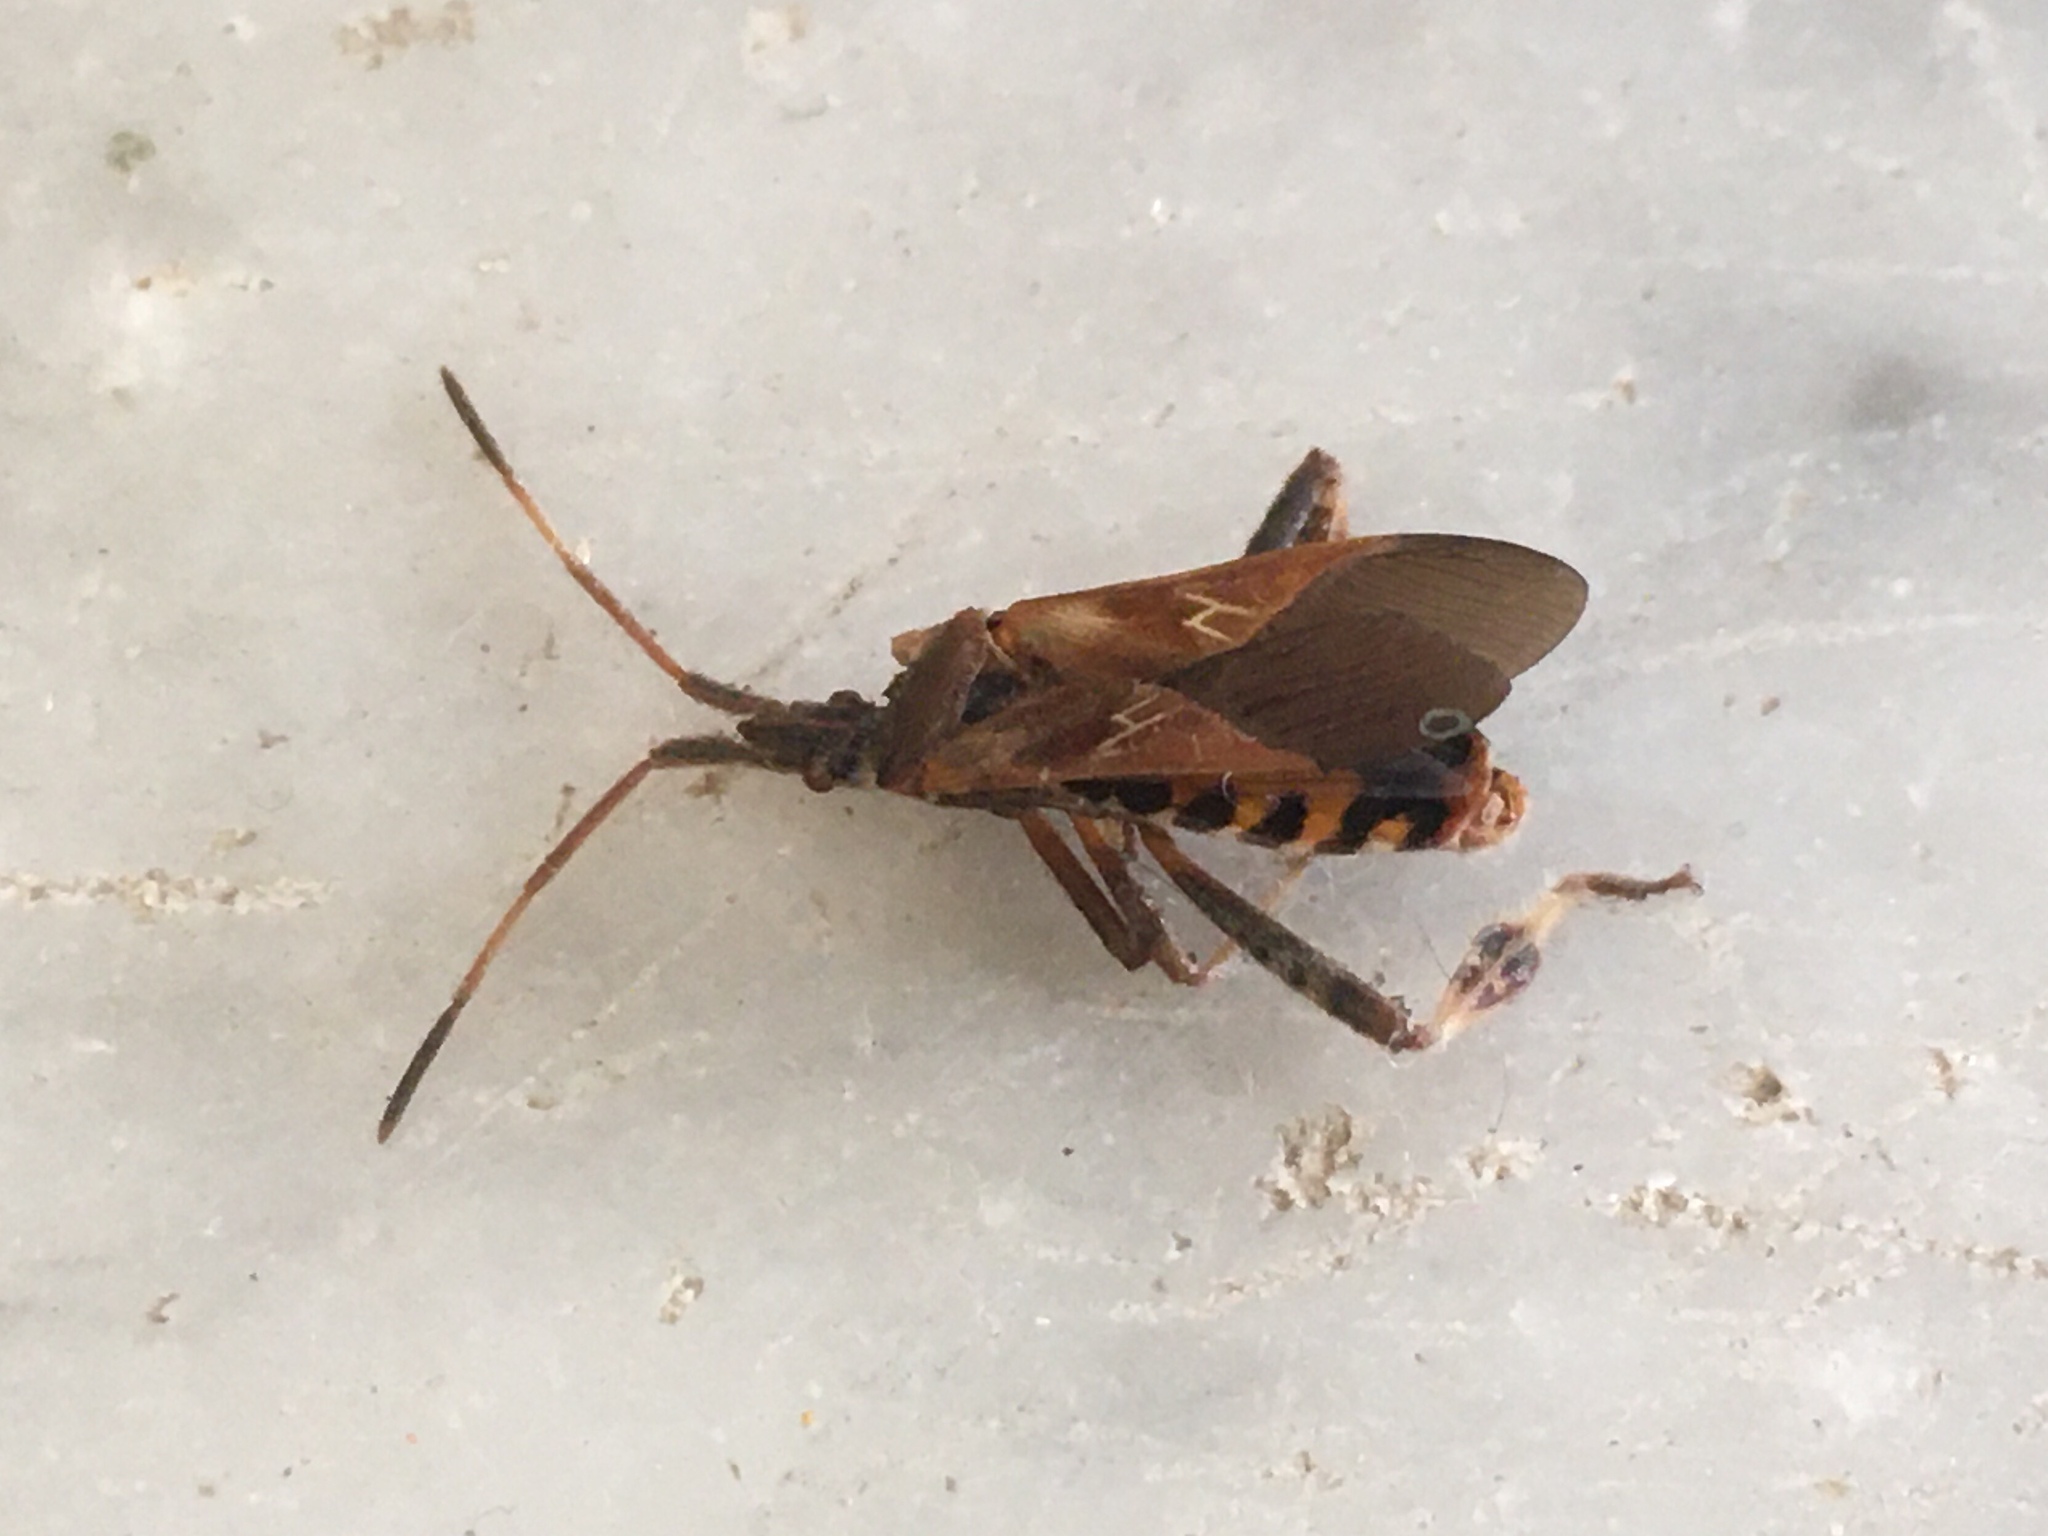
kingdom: Animalia
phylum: Arthropoda
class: Insecta
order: Hemiptera
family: Coreidae
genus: Leptoglossus
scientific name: Leptoglossus occidentalis
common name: Western conifer-seed bug
